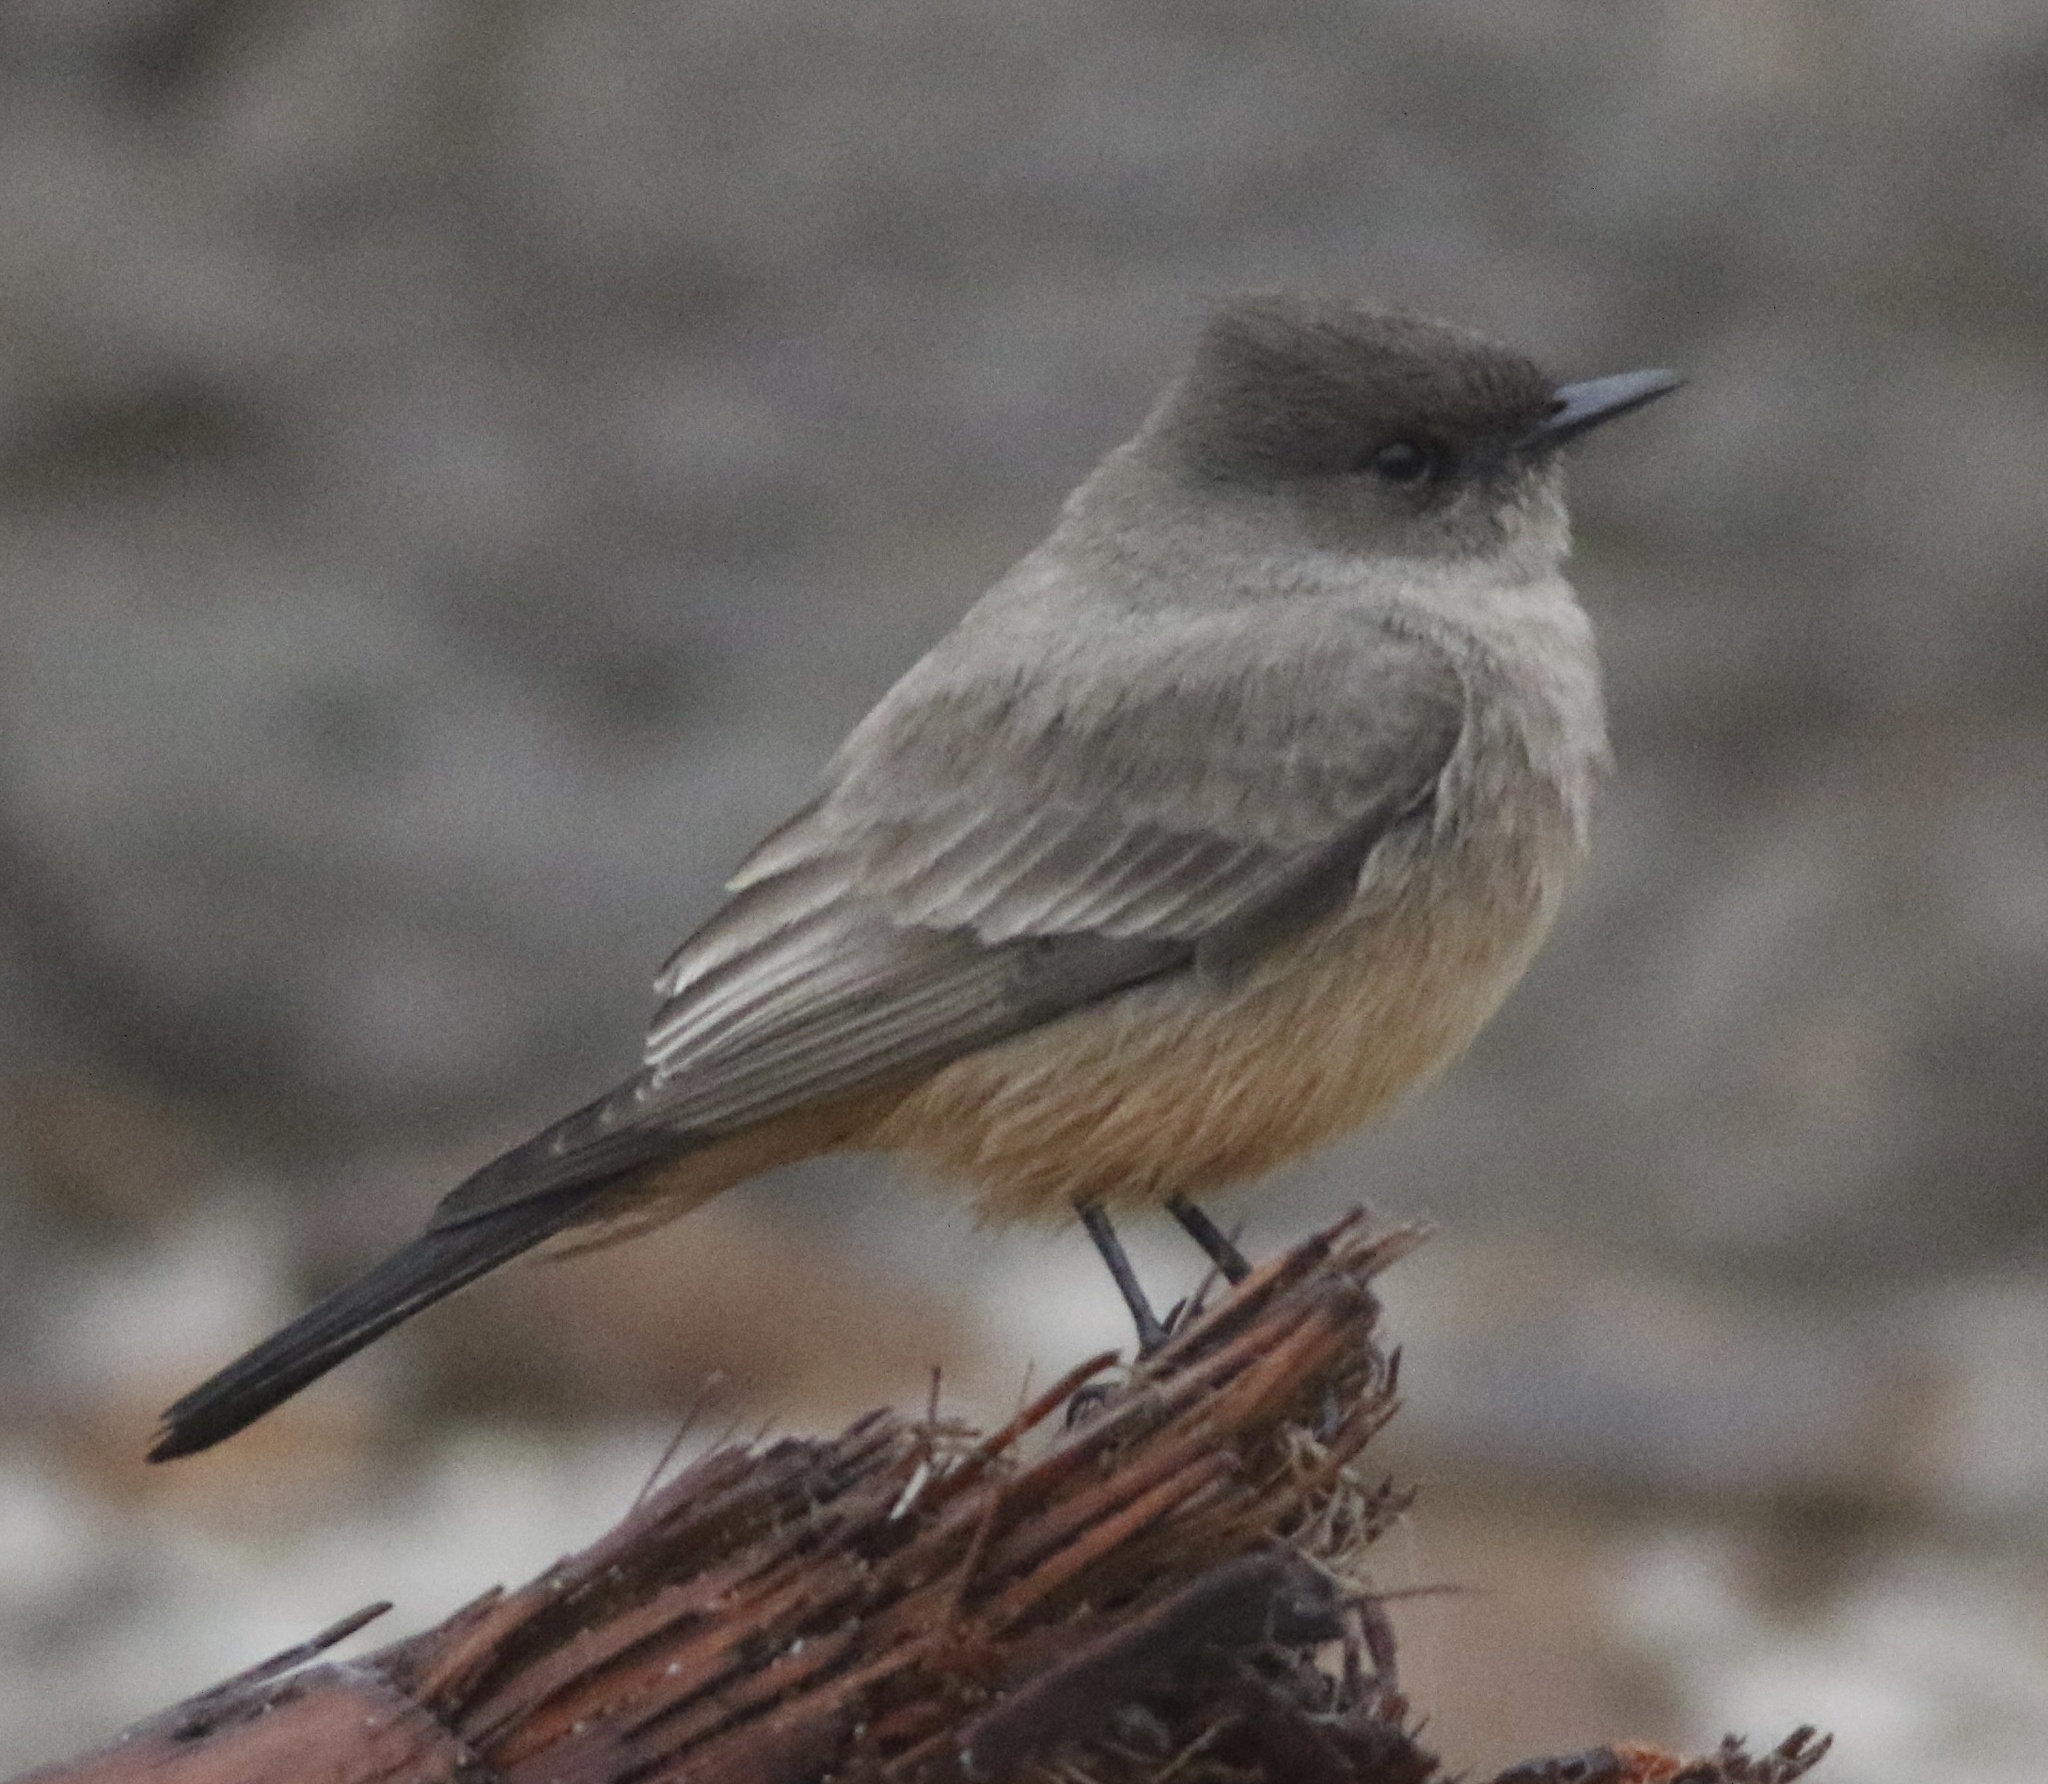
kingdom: Animalia
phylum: Chordata
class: Aves
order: Passeriformes
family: Tyrannidae
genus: Sayornis
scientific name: Sayornis saya
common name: Say's phoebe
